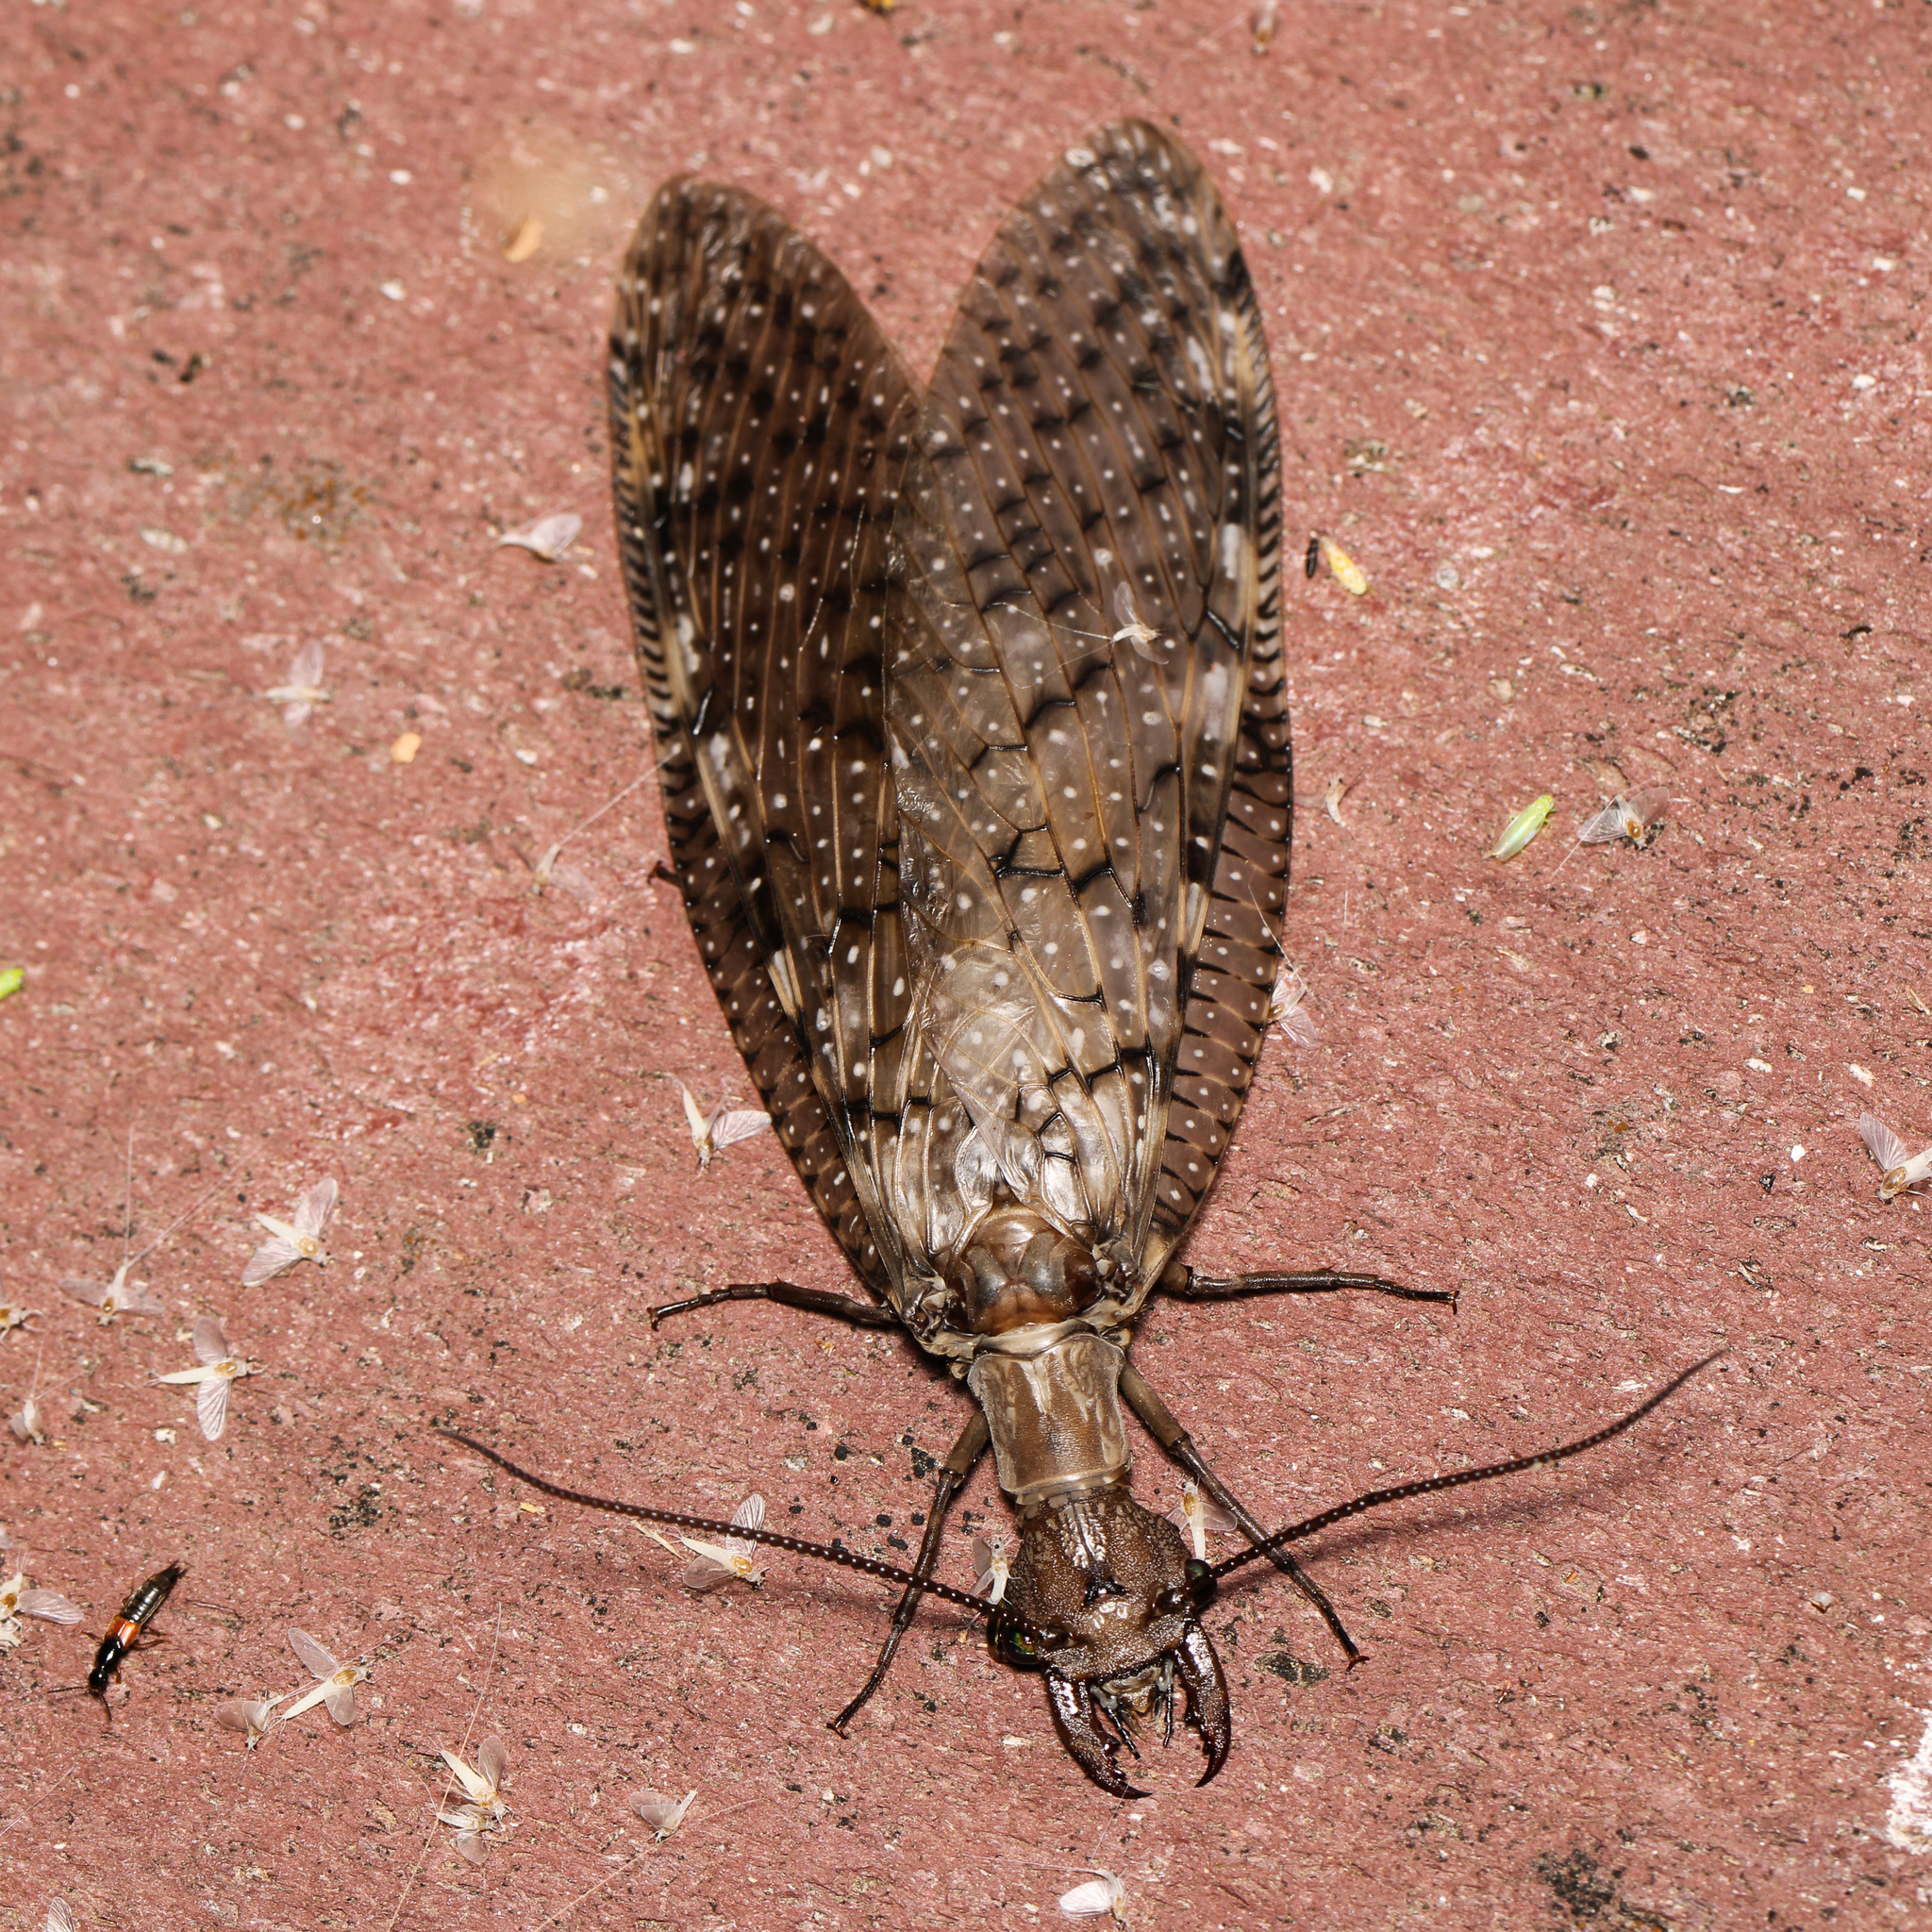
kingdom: Animalia
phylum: Arthropoda
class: Insecta
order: Megaloptera
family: Corydalidae
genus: Corydalus
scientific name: Corydalus cornutus
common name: Dobsonfly
